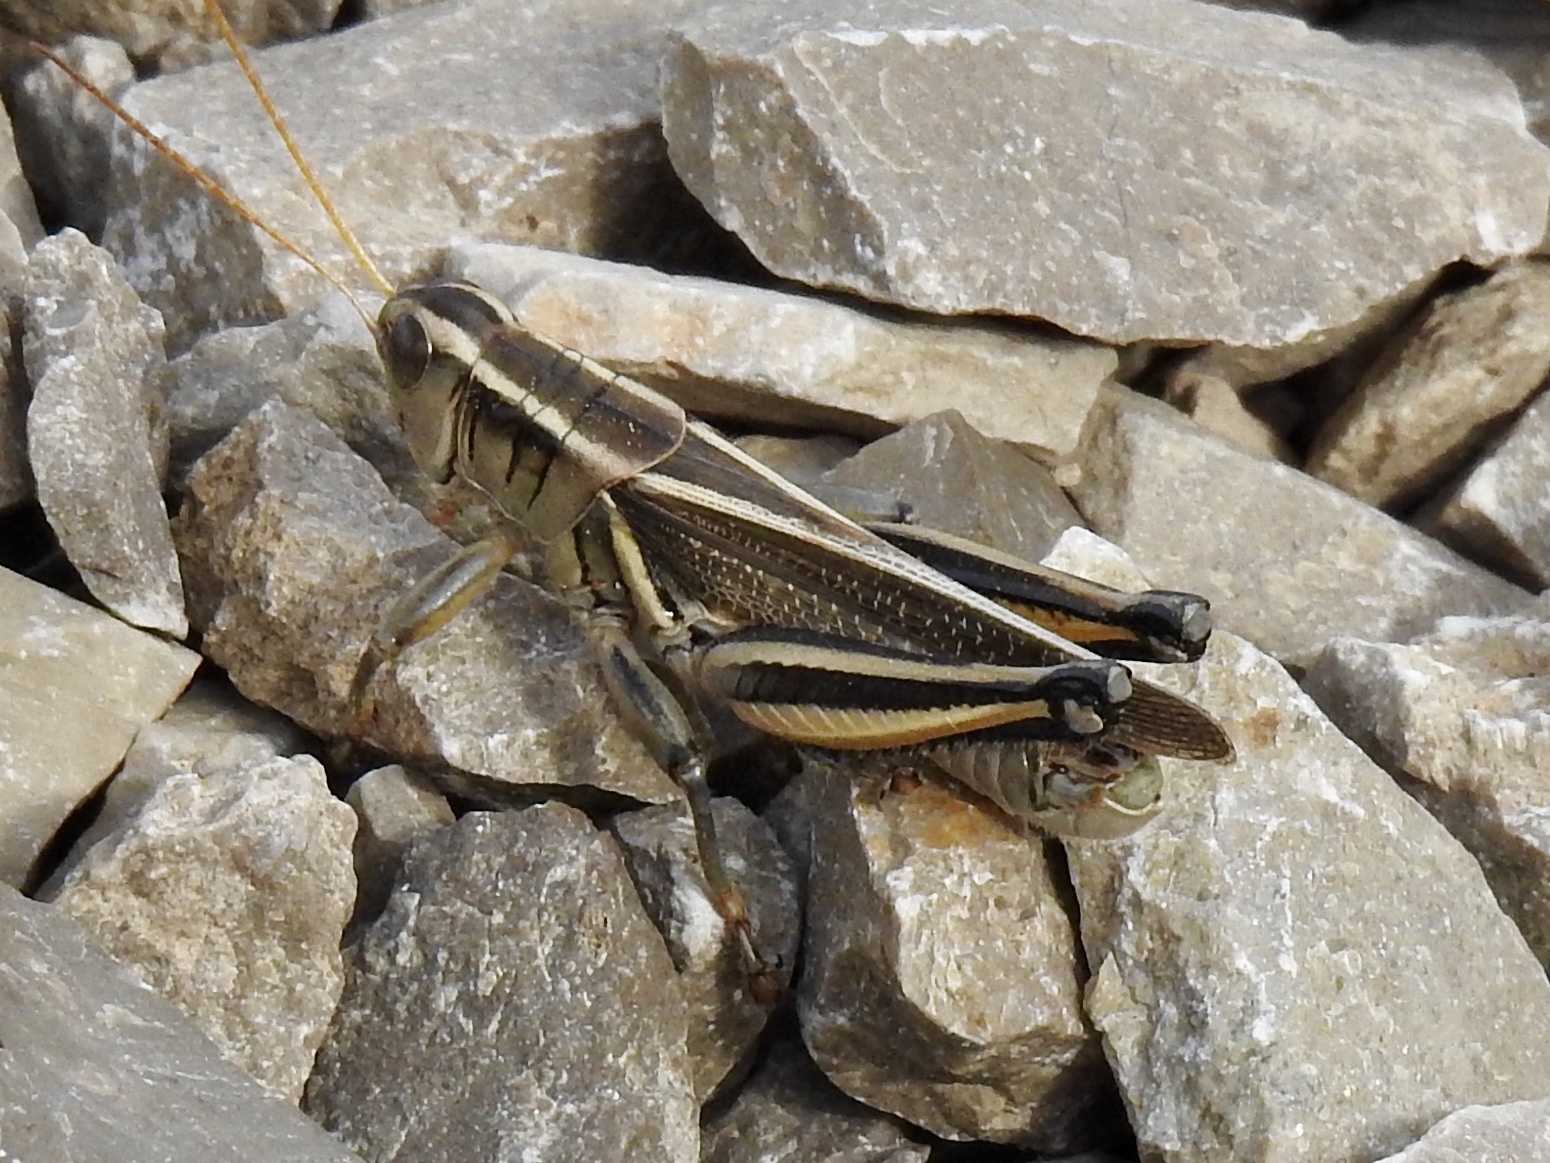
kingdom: Animalia
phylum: Arthropoda
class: Insecta
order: Orthoptera
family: Acrididae
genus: Melanoplus
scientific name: Melanoplus bivittatus
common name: Two-striped grasshopper
